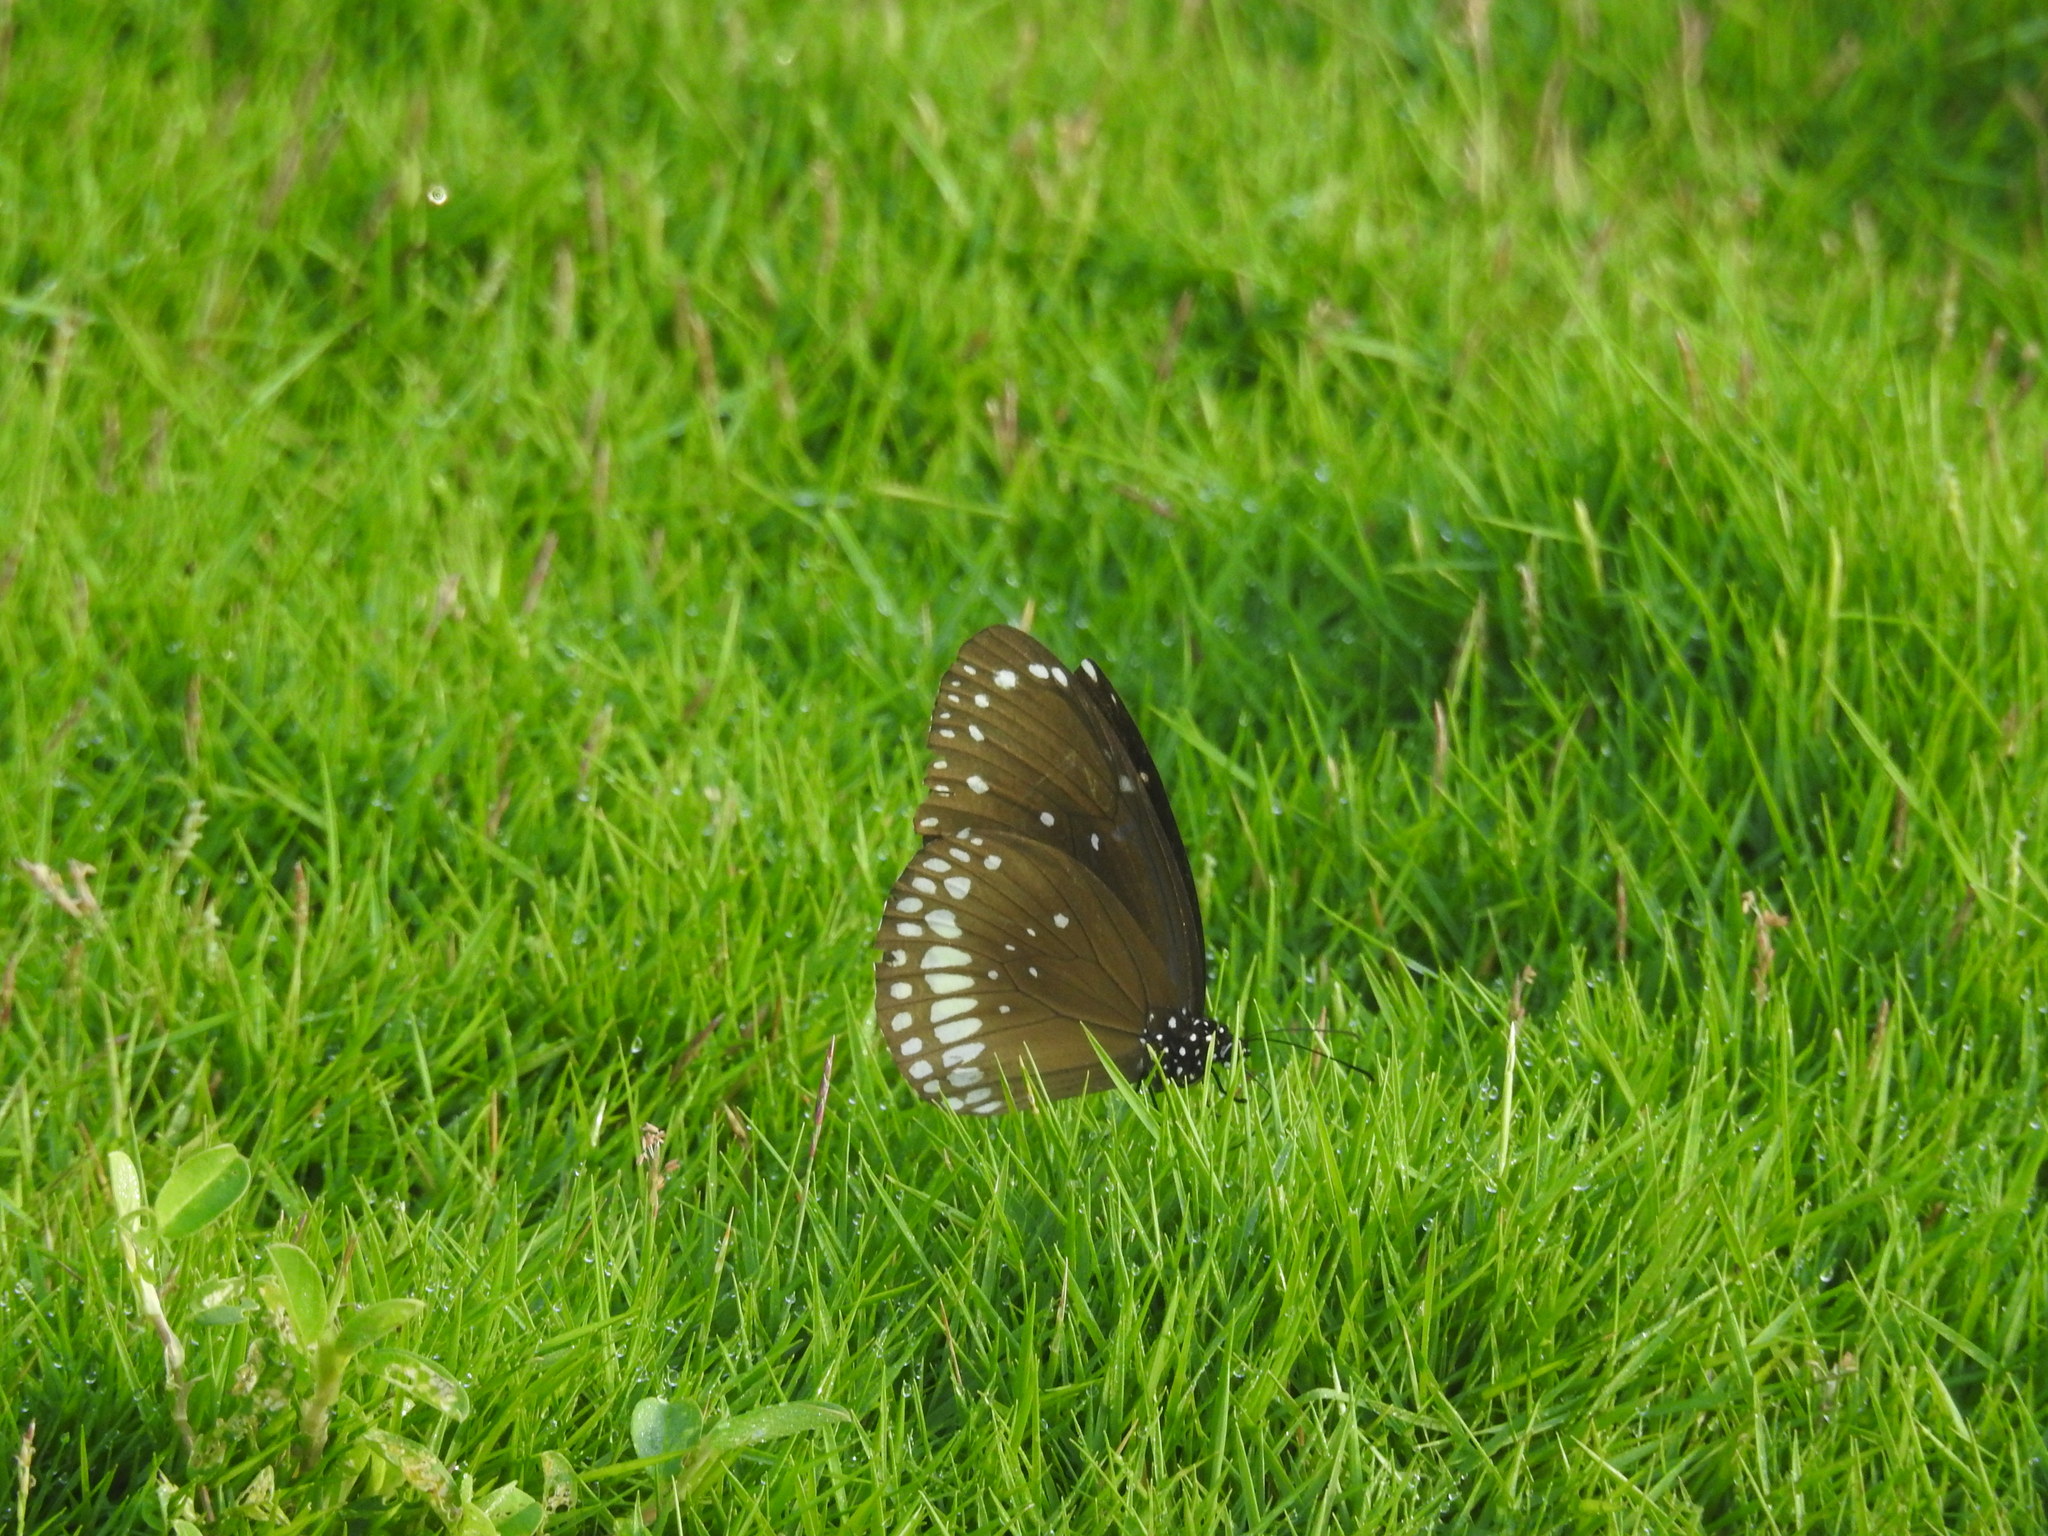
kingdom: Animalia
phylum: Arthropoda
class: Insecta
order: Lepidoptera
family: Nymphalidae
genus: Euploea
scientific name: Euploea core
